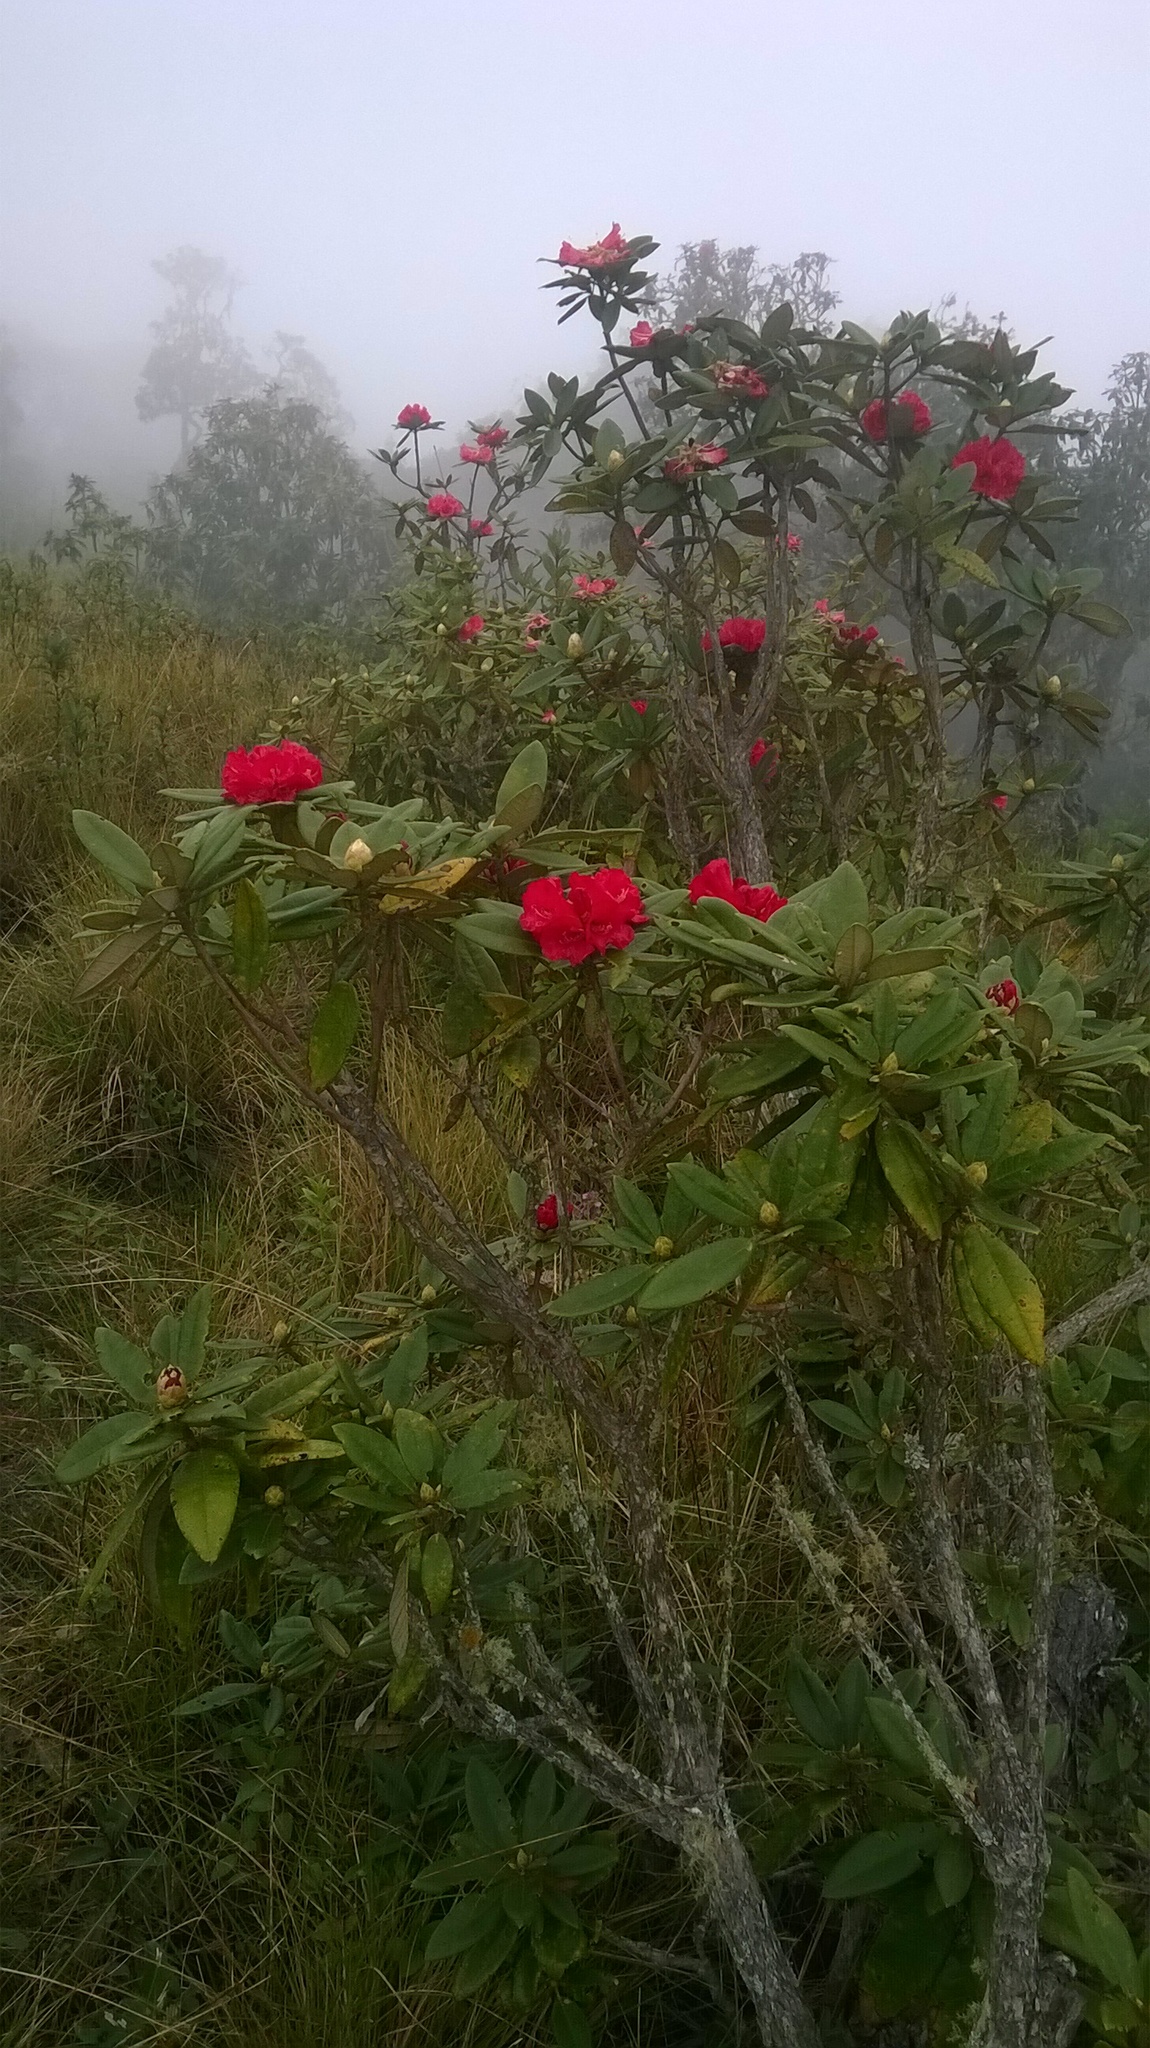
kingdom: Plantae
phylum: Tracheophyta
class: Magnoliopsida
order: Ericales
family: Ericaceae
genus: Rhododendron
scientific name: Rhododendron arboreum
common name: Tree rhododendron
